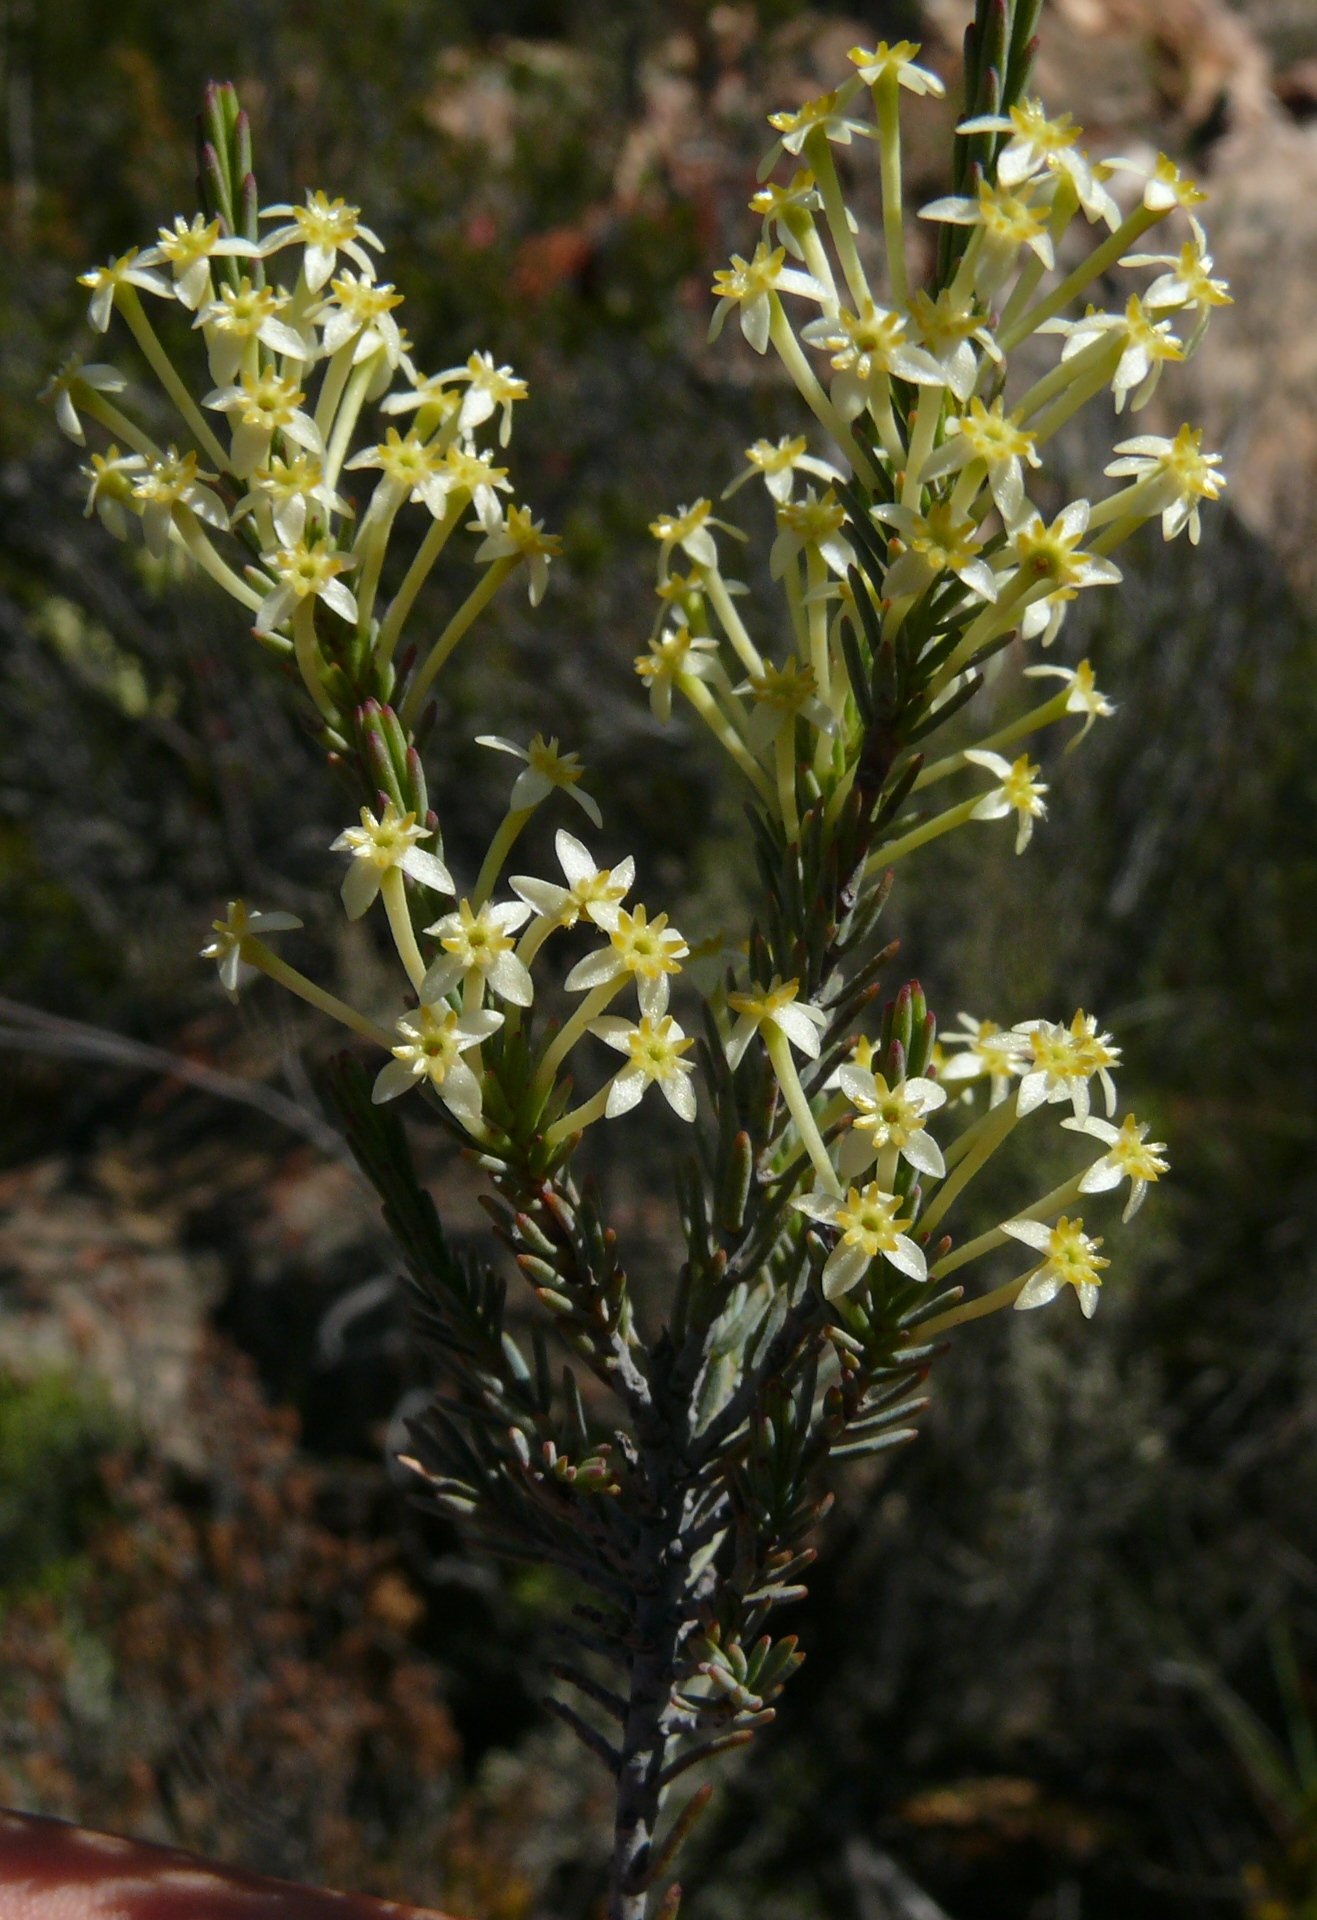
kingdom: Plantae
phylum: Tracheophyta
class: Magnoliopsida
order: Malvales
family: Thymelaeaceae
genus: Struthiola
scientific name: Struthiola eckloniana
